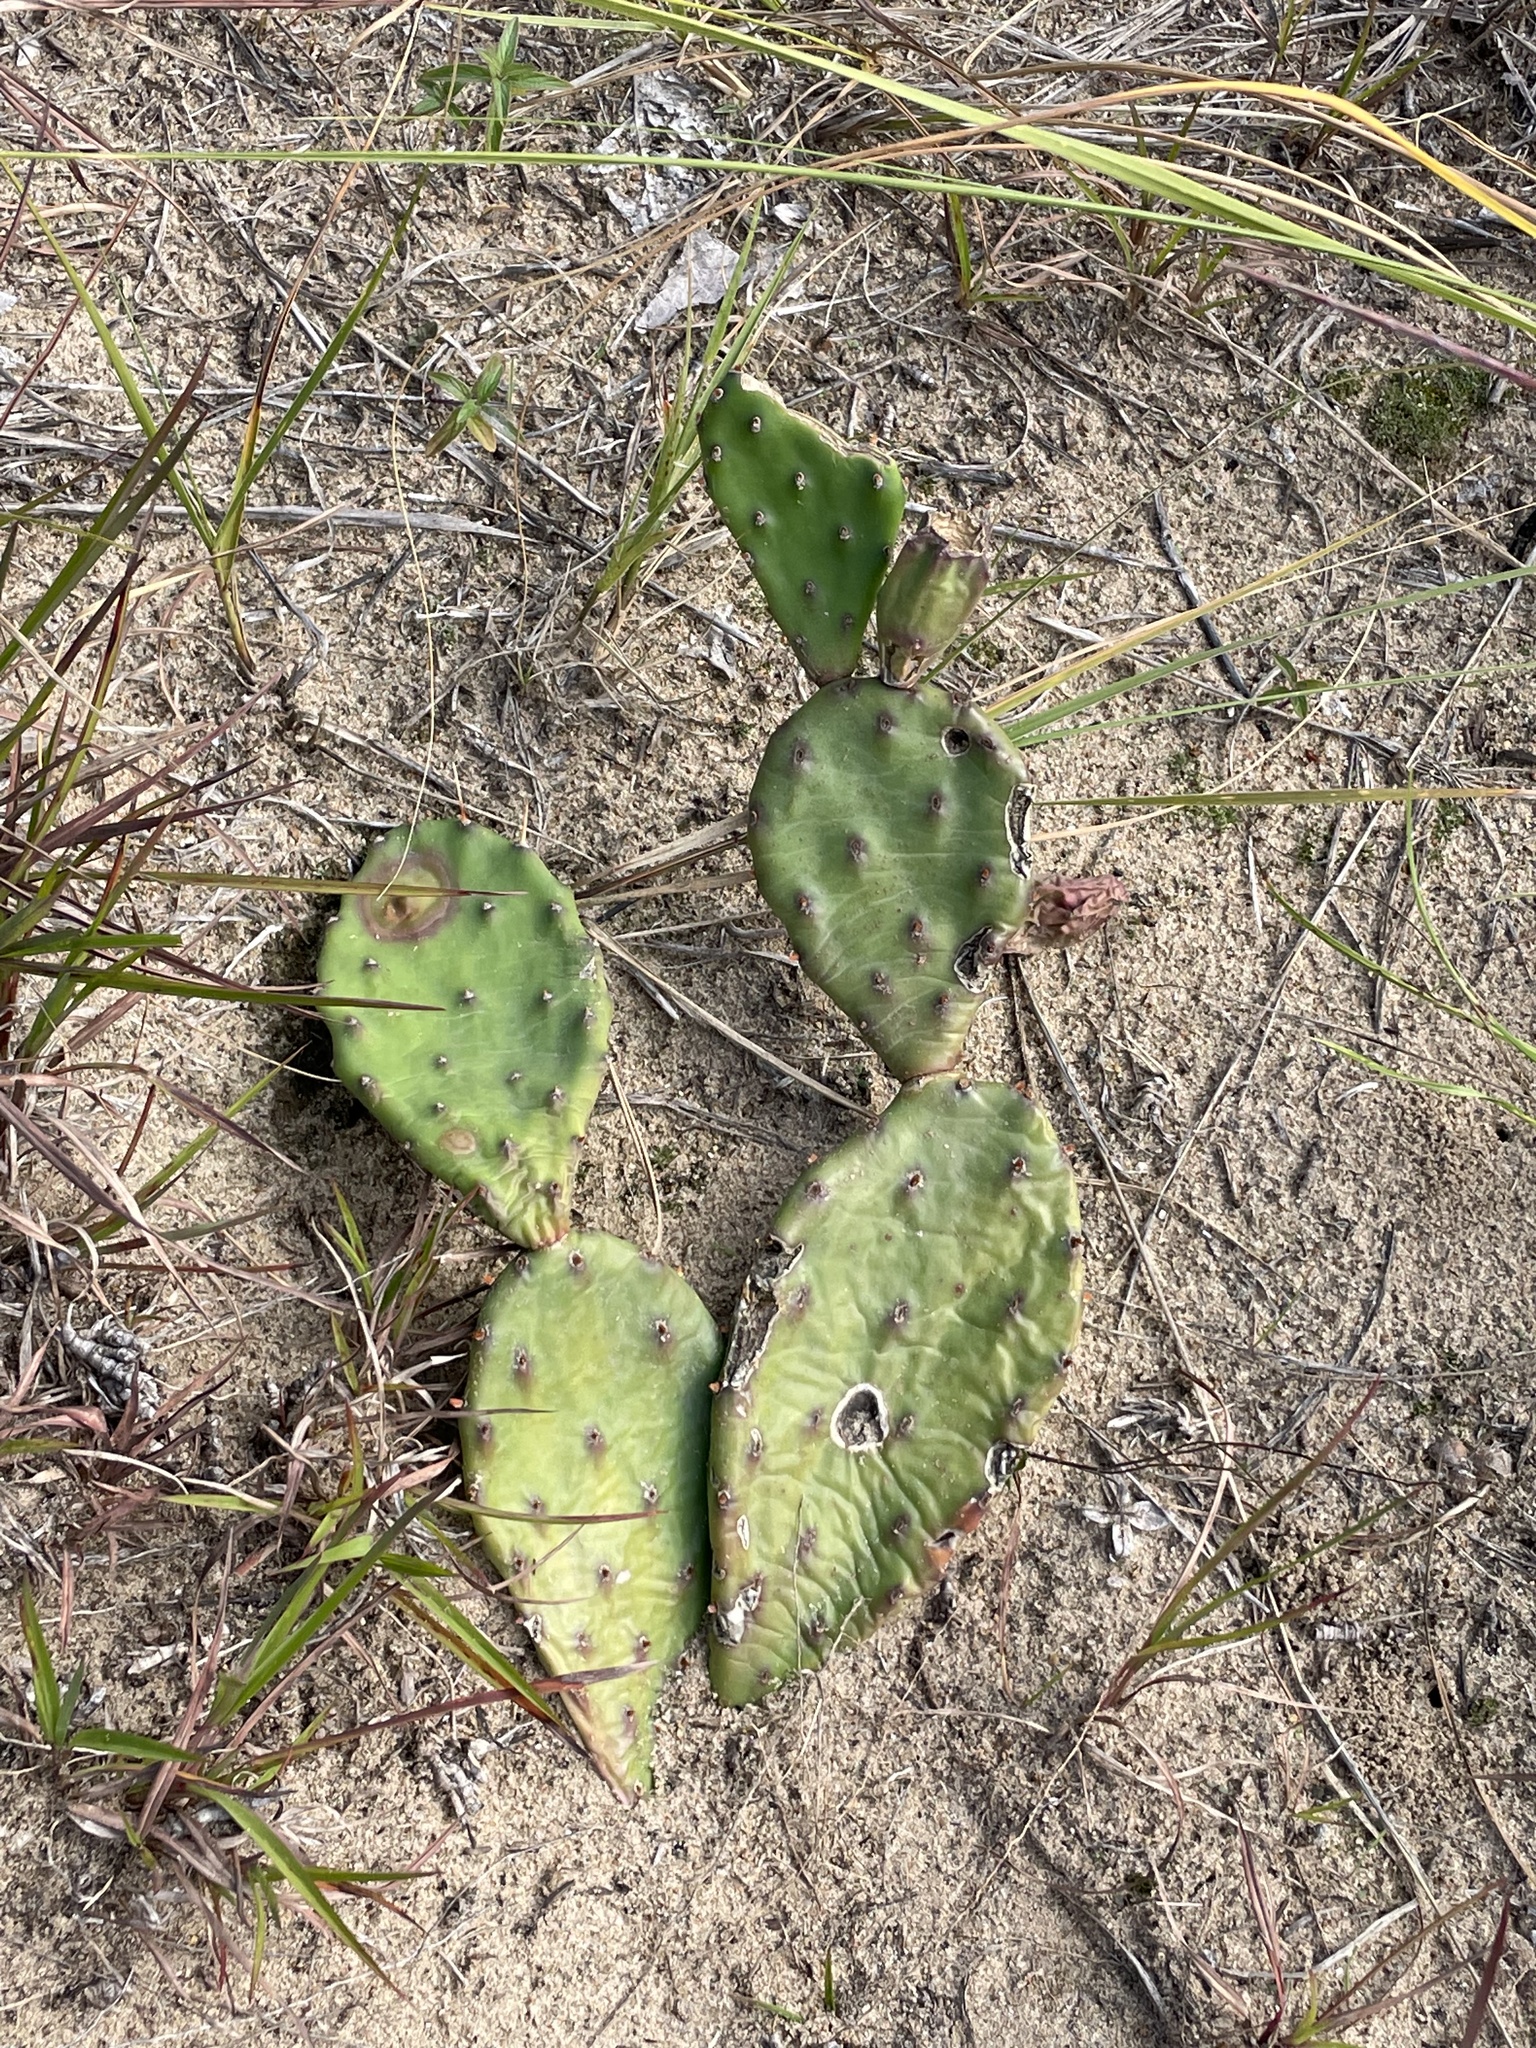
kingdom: Plantae
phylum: Tracheophyta
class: Magnoliopsida
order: Caryophyllales
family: Cactaceae
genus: Opuntia
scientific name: Opuntia humifusa
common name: Eastern prickly-pear
